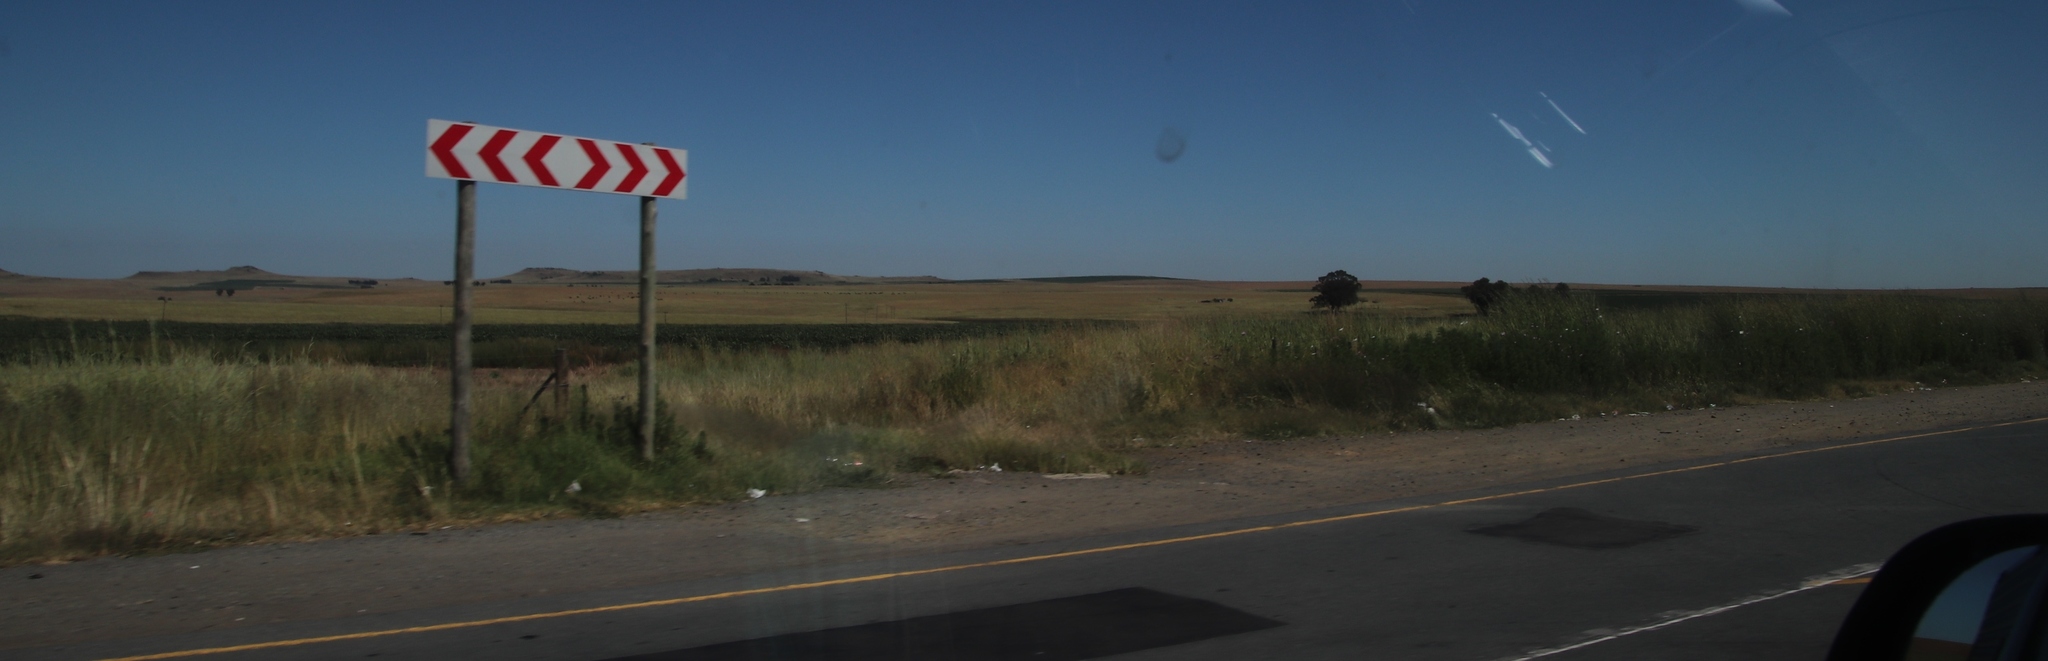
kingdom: Plantae
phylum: Tracheophyta
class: Magnoliopsida
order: Asterales
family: Asteraceae
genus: Cosmos
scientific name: Cosmos bipinnatus
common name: Garden cosmos
